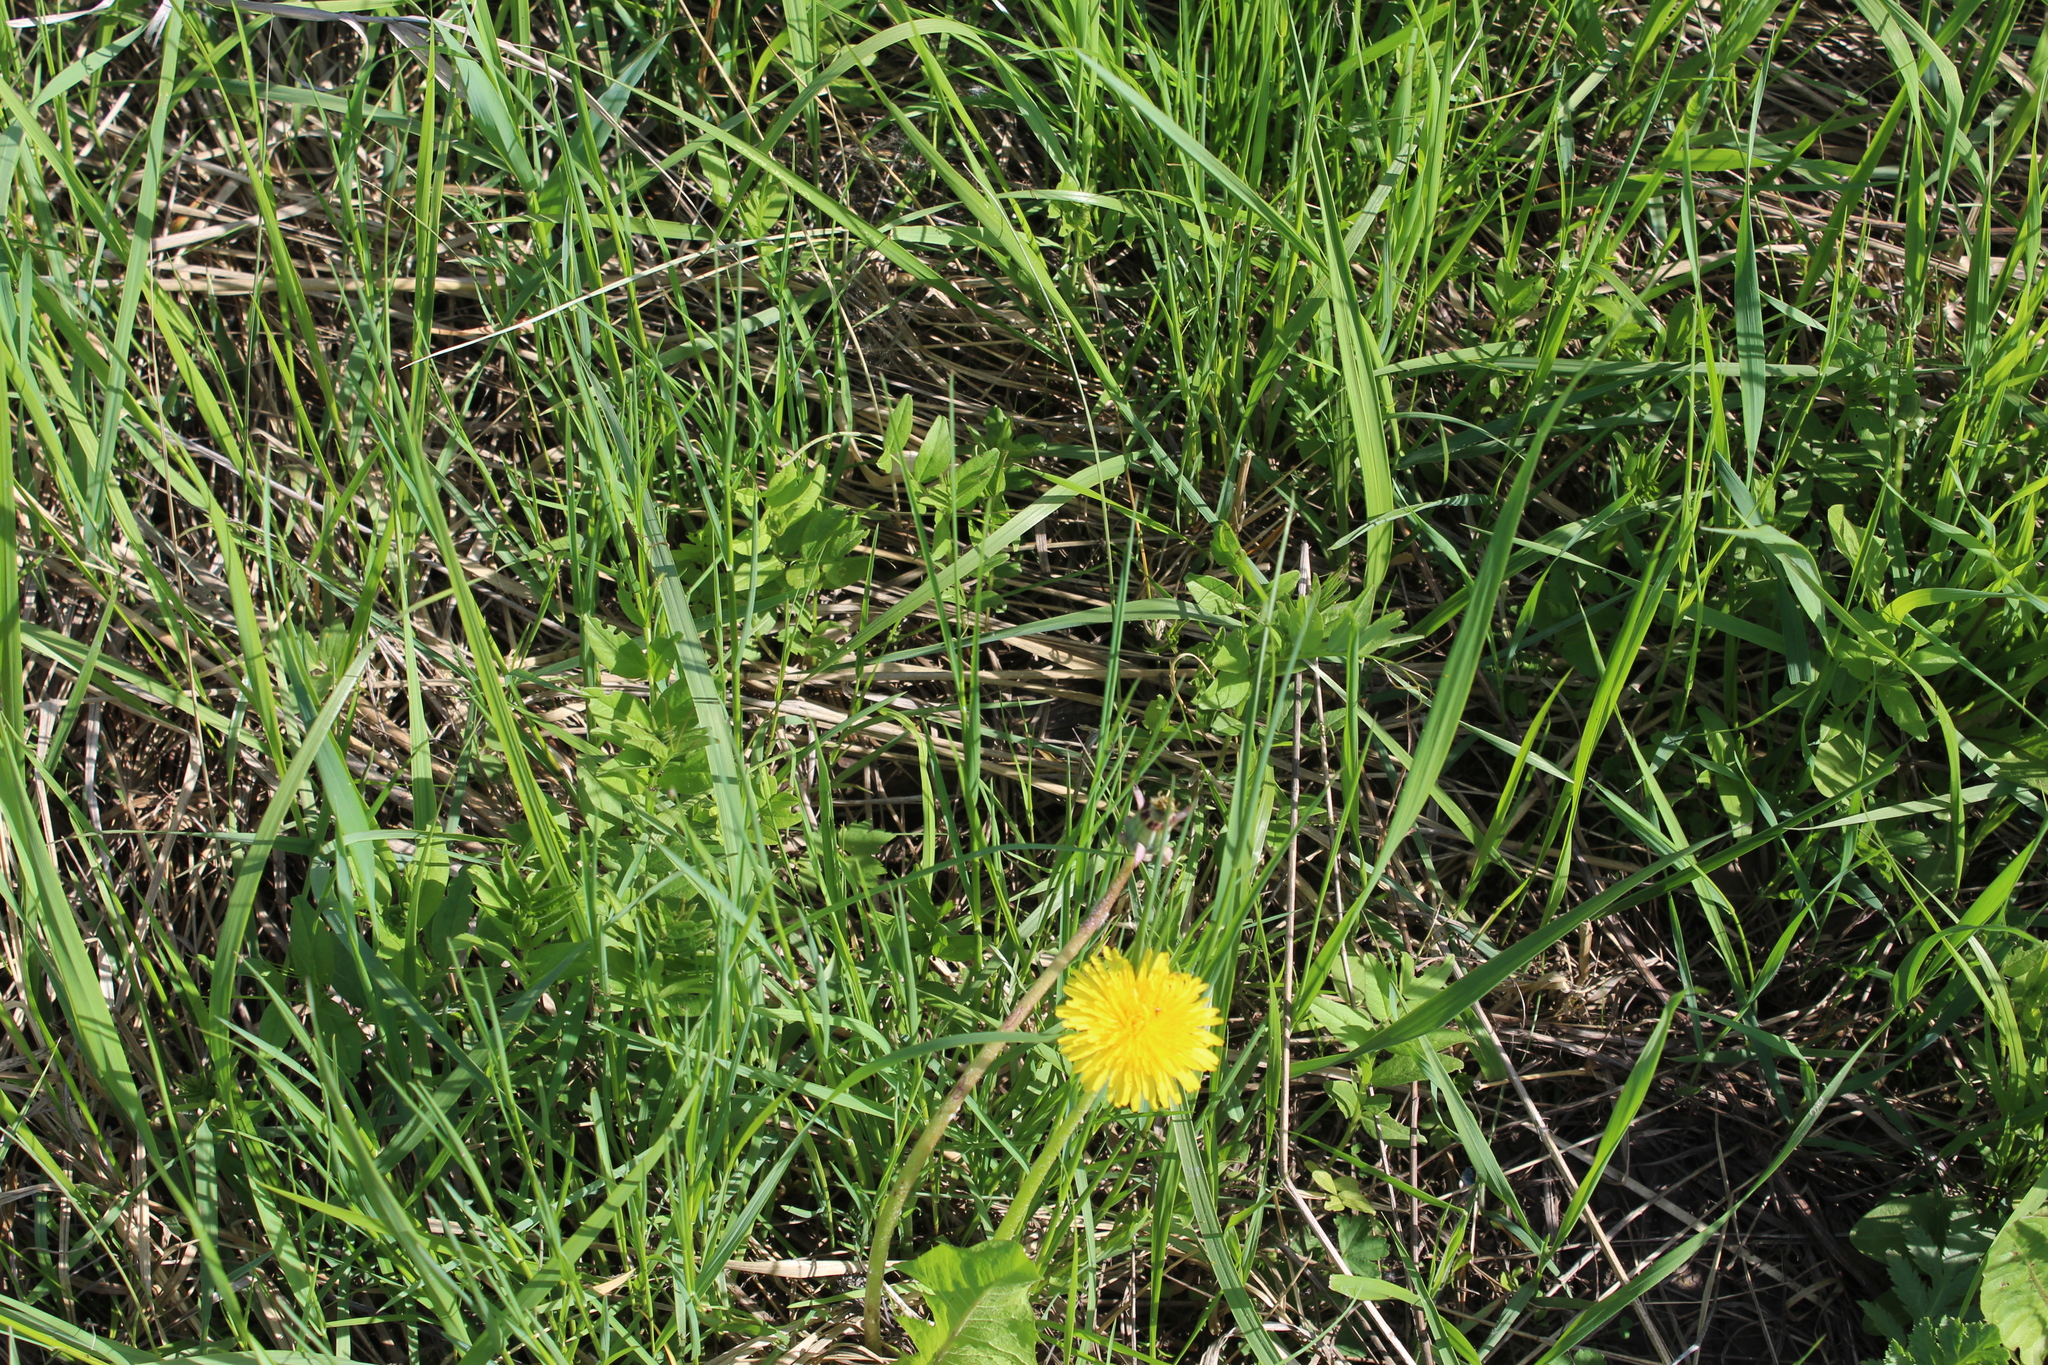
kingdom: Plantae
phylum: Tracheophyta
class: Magnoliopsida
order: Fabales
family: Fabaceae
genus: Vicia
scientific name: Vicia sepium
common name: Bush vetch
